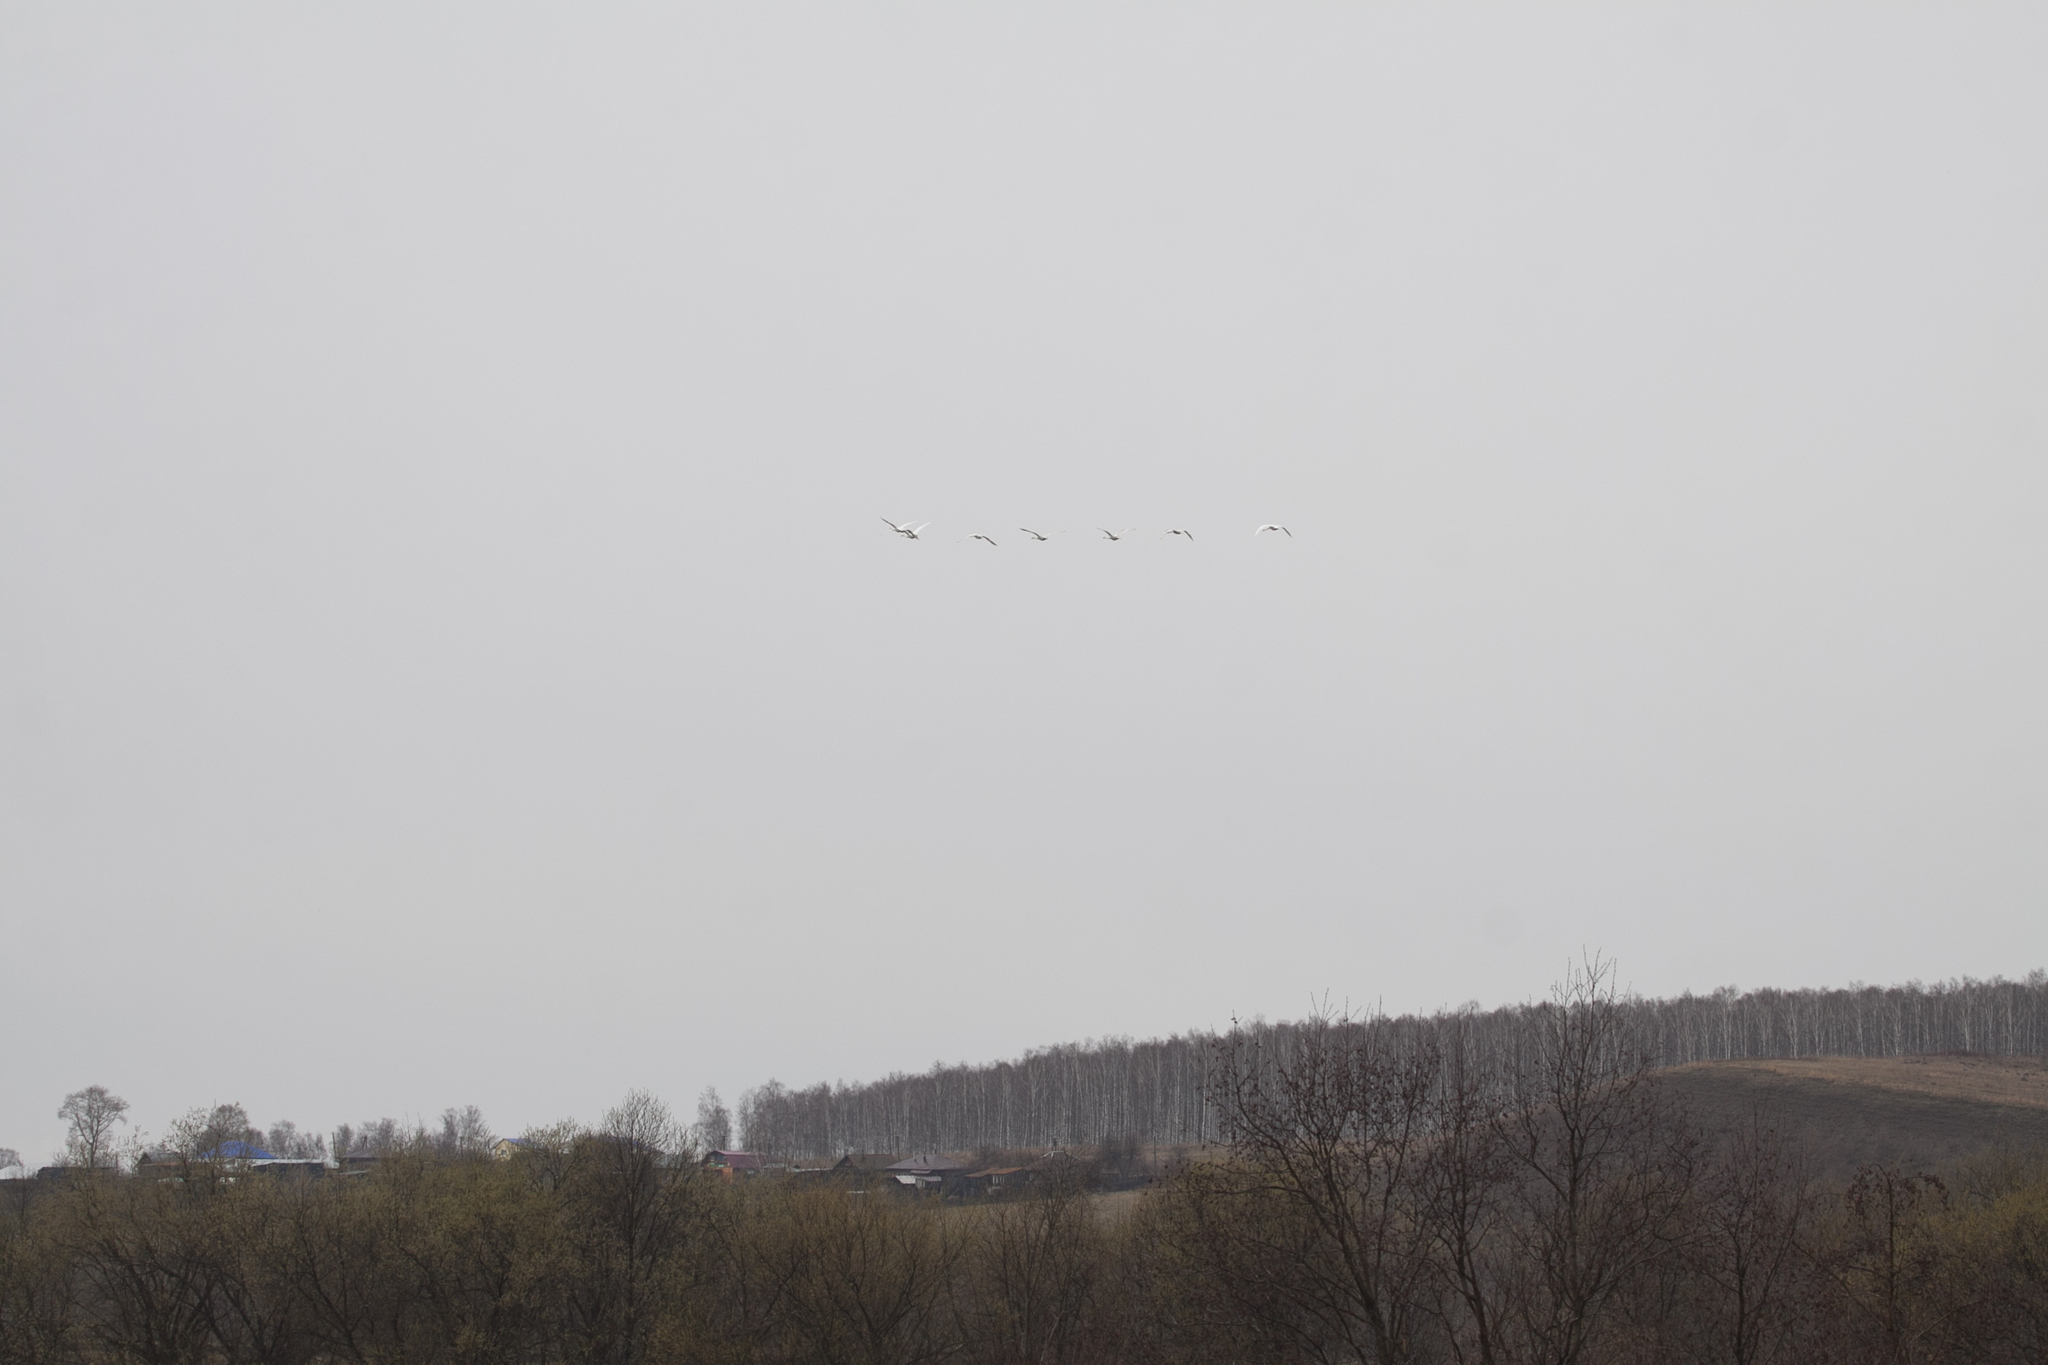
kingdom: Animalia
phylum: Chordata
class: Aves
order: Anseriformes
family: Anatidae
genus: Cygnus
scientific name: Cygnus olor
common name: Mute swan
